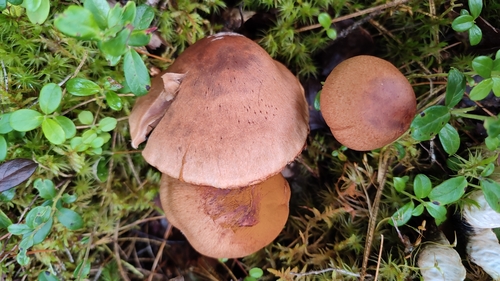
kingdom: Fungi
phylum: Basidiomycota
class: Agaricomycetes
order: Agaricales
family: Cortinariaceae
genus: Cortinarius
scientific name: Cortinarius armillatus
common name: Red banded webcap
